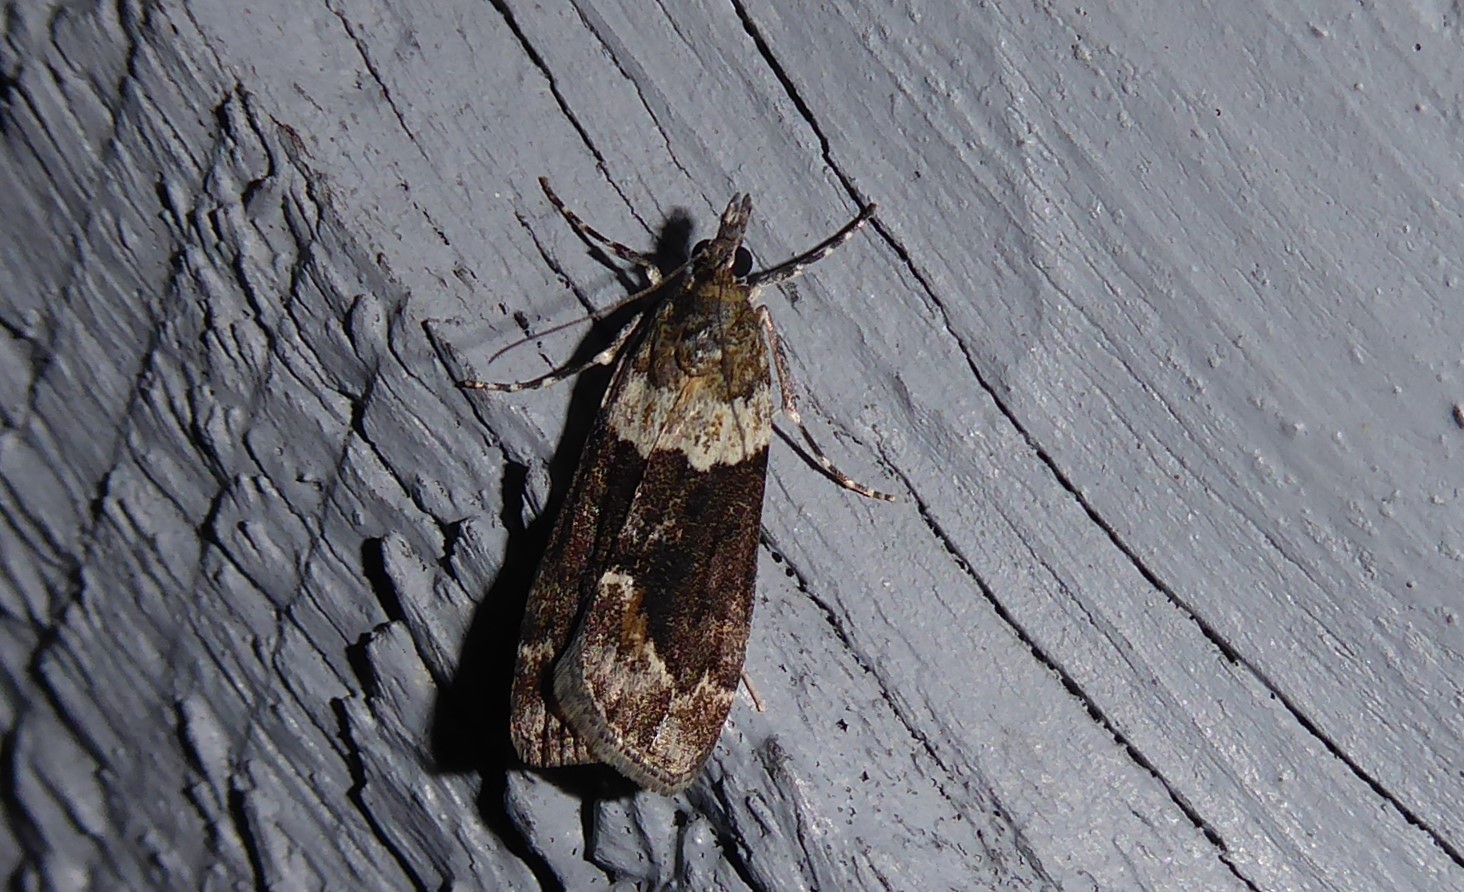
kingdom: Animalia
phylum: Arthropoda
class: Insecta
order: Lepidoptera
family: Crambidae
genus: Eudonia
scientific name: Eudonia submarginalis
